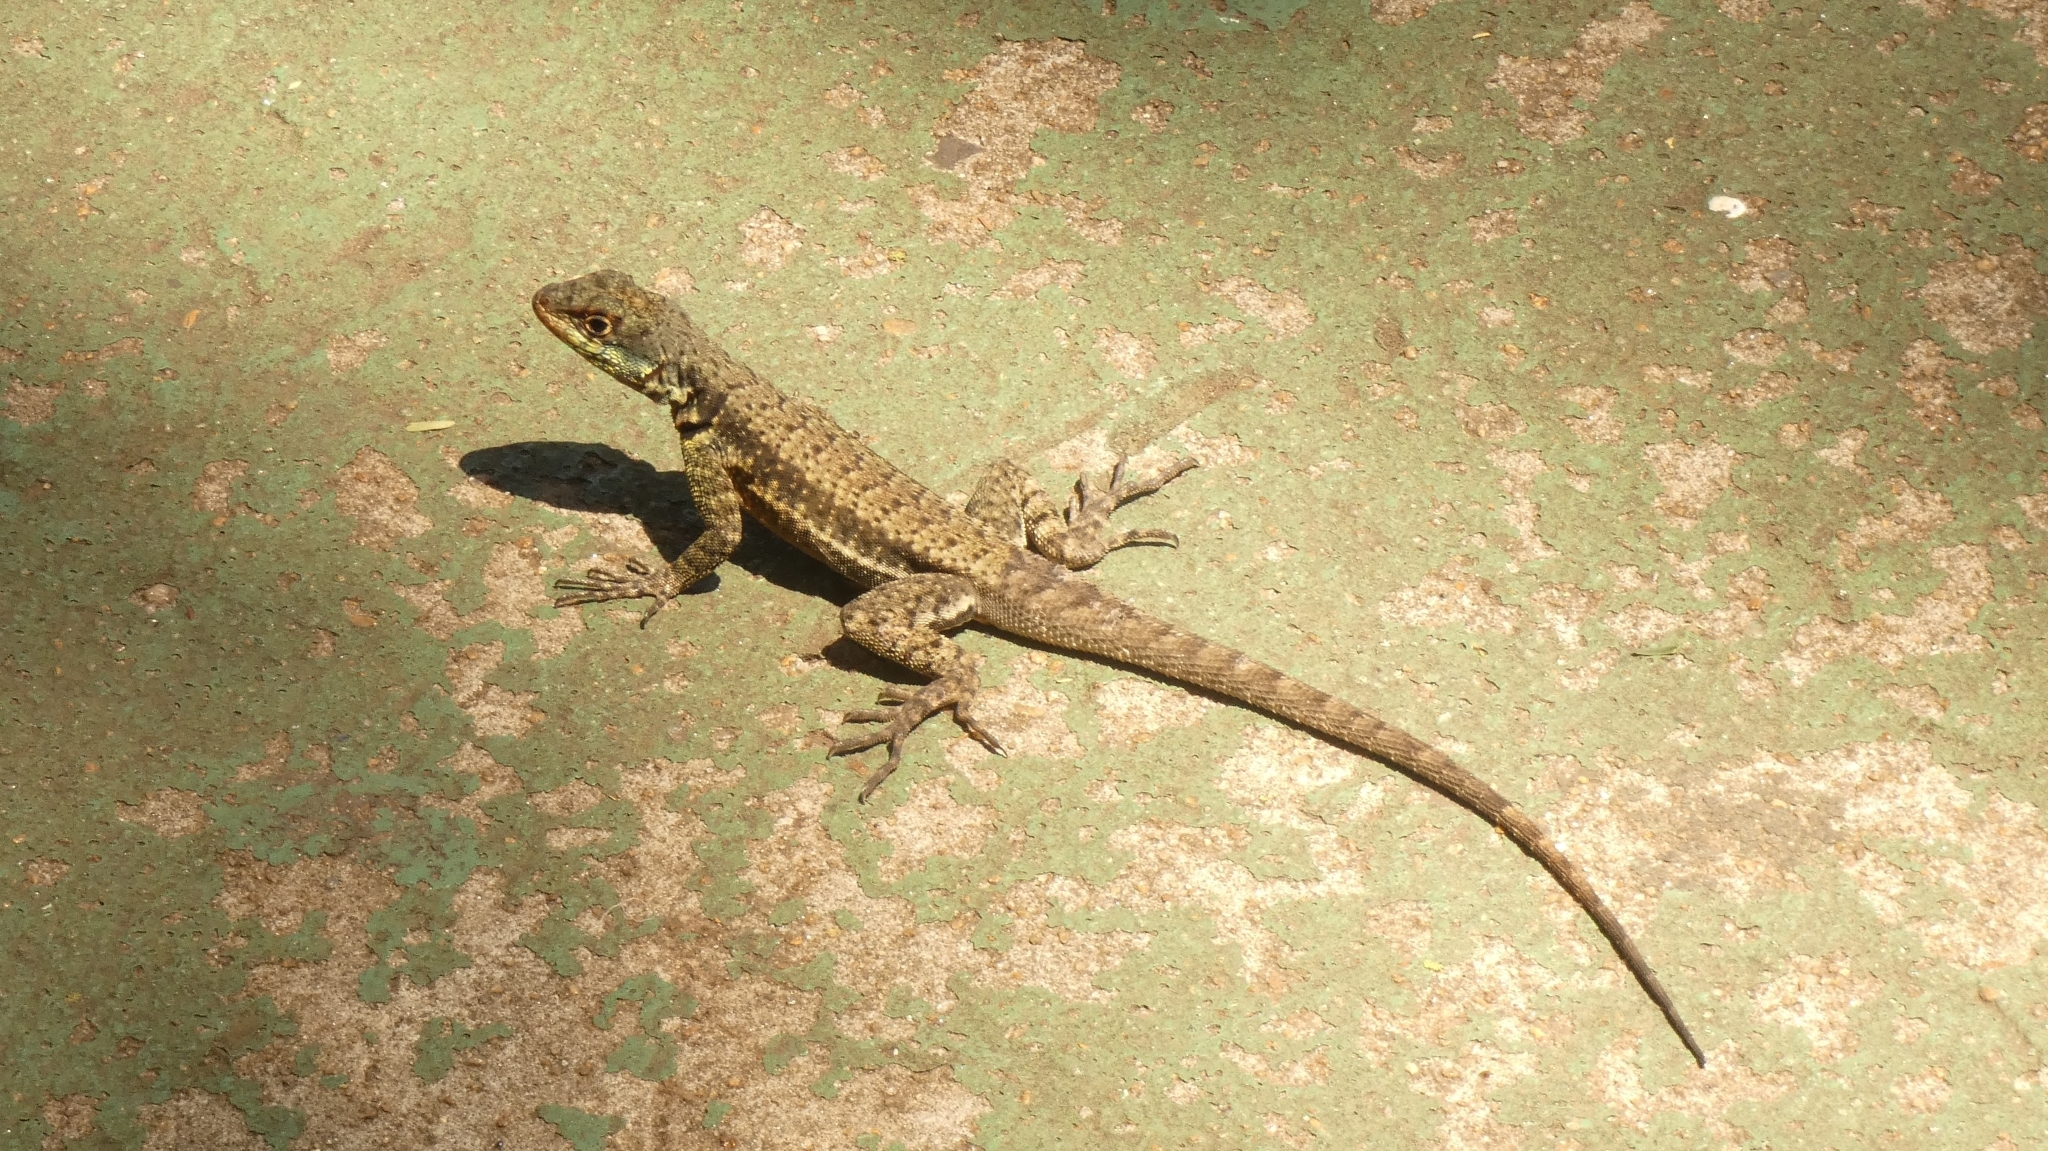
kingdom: Animalia
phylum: Chordata
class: Squamata
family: Tropiduridae
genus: Tropidurus
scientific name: Tropidurus catalanensis
